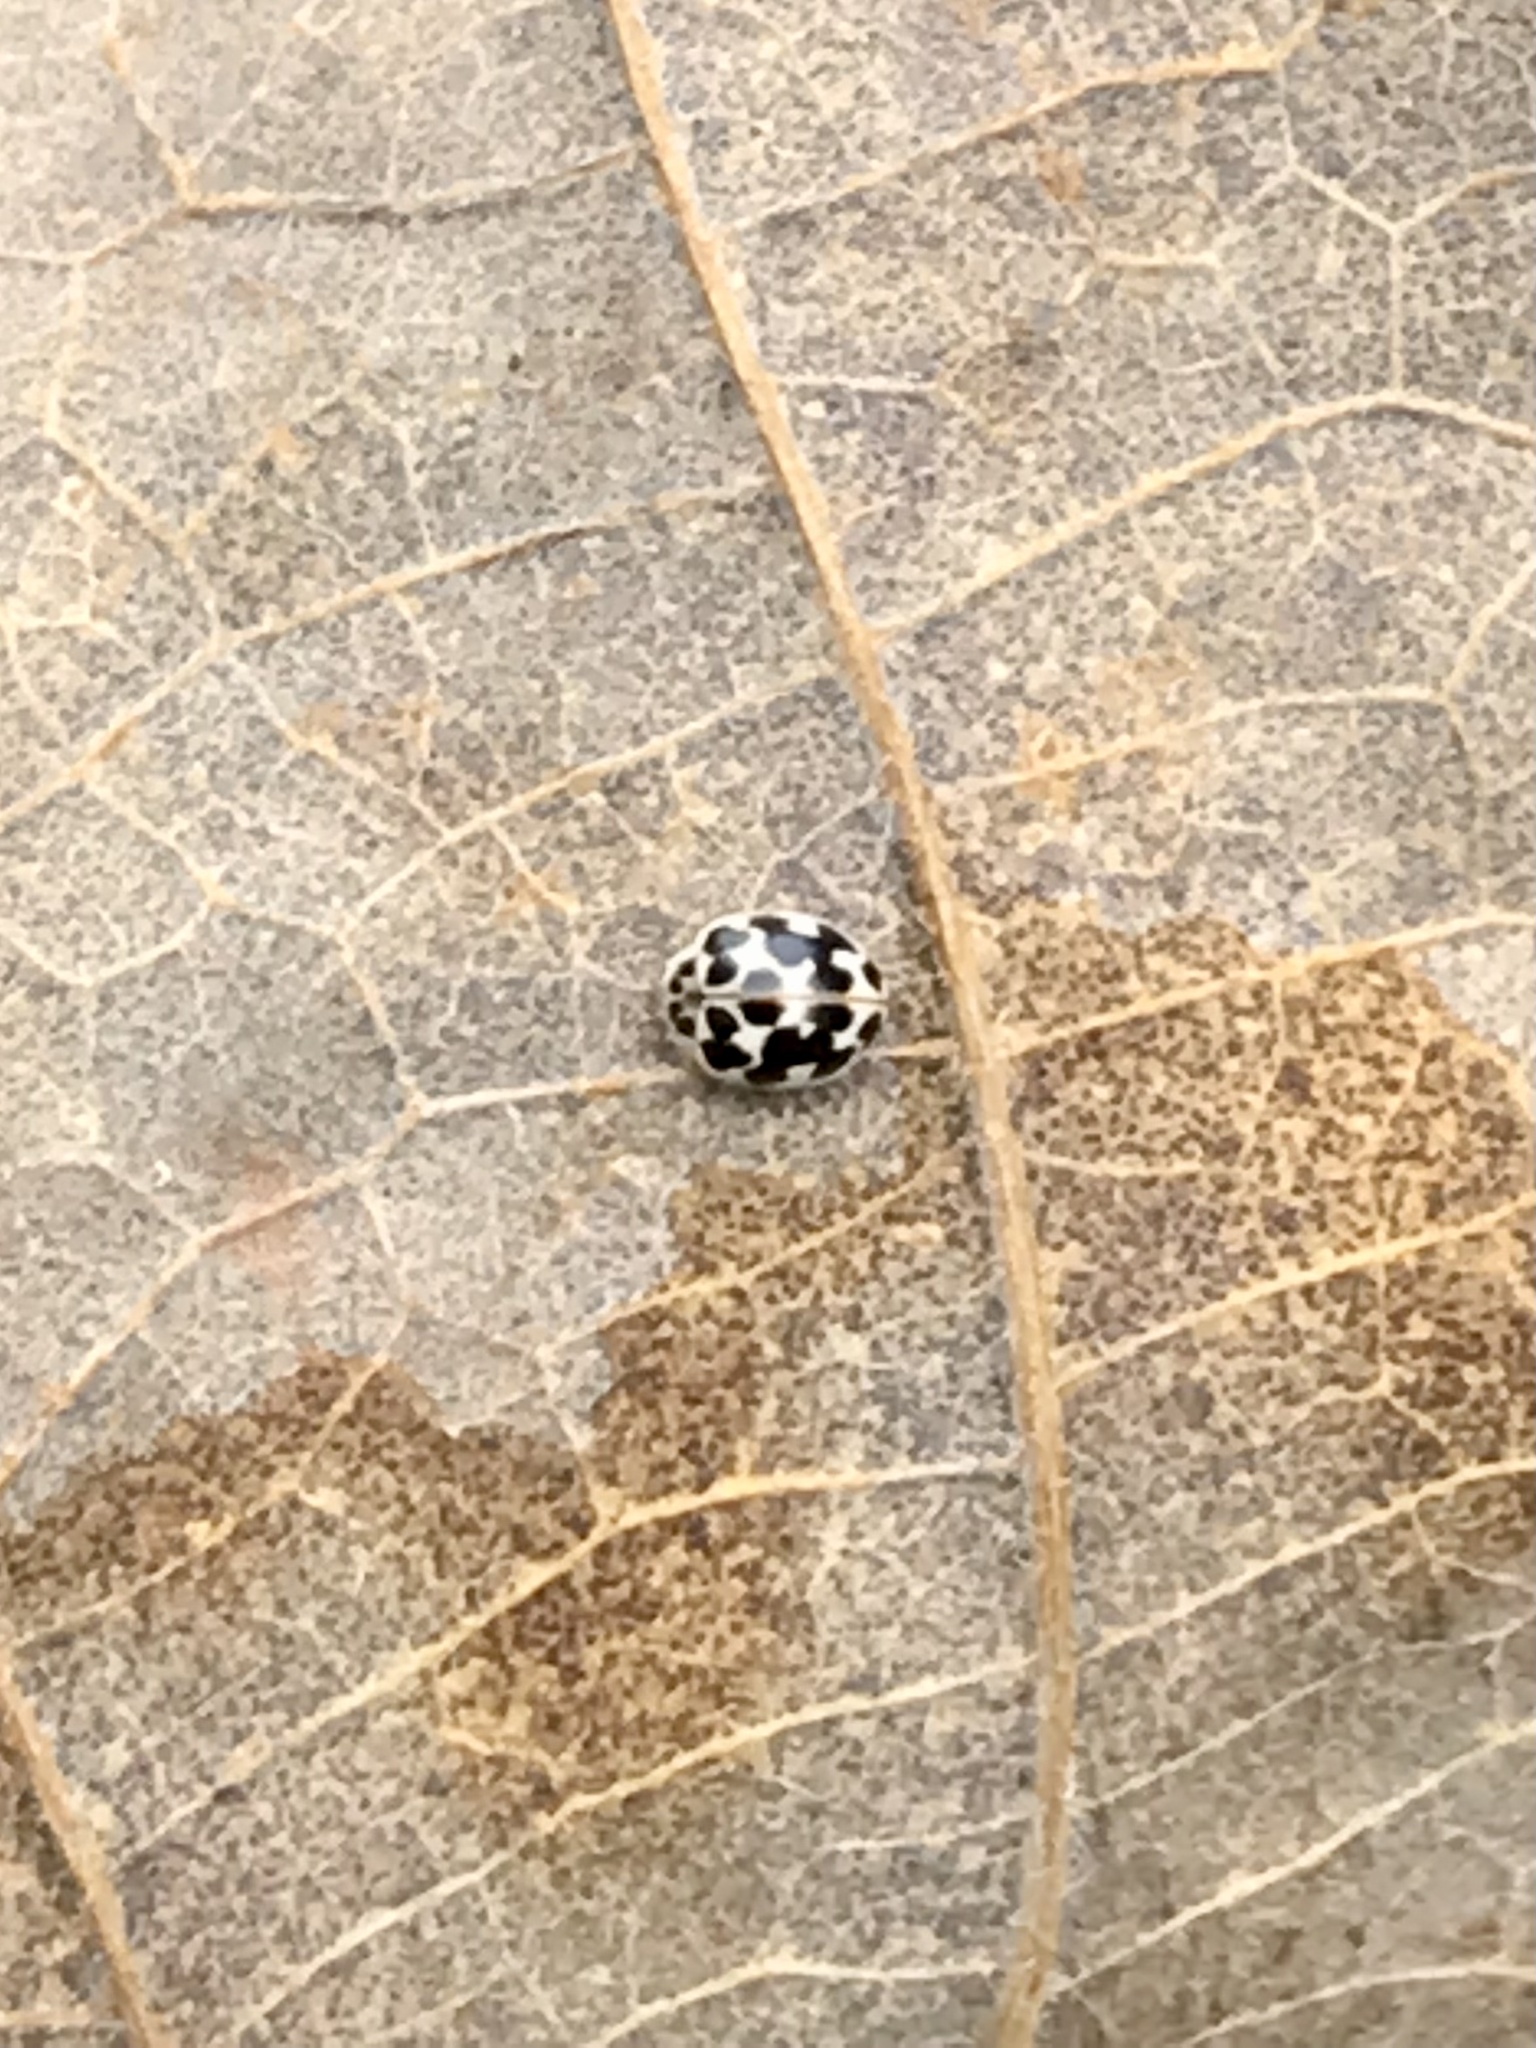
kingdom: Animalia
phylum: Arthropoda
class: Insecta
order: Coleoptera
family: Coccinellidae
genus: Psyllobora
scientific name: Psyllobora vigintimaculata
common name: Ladybird beetle
